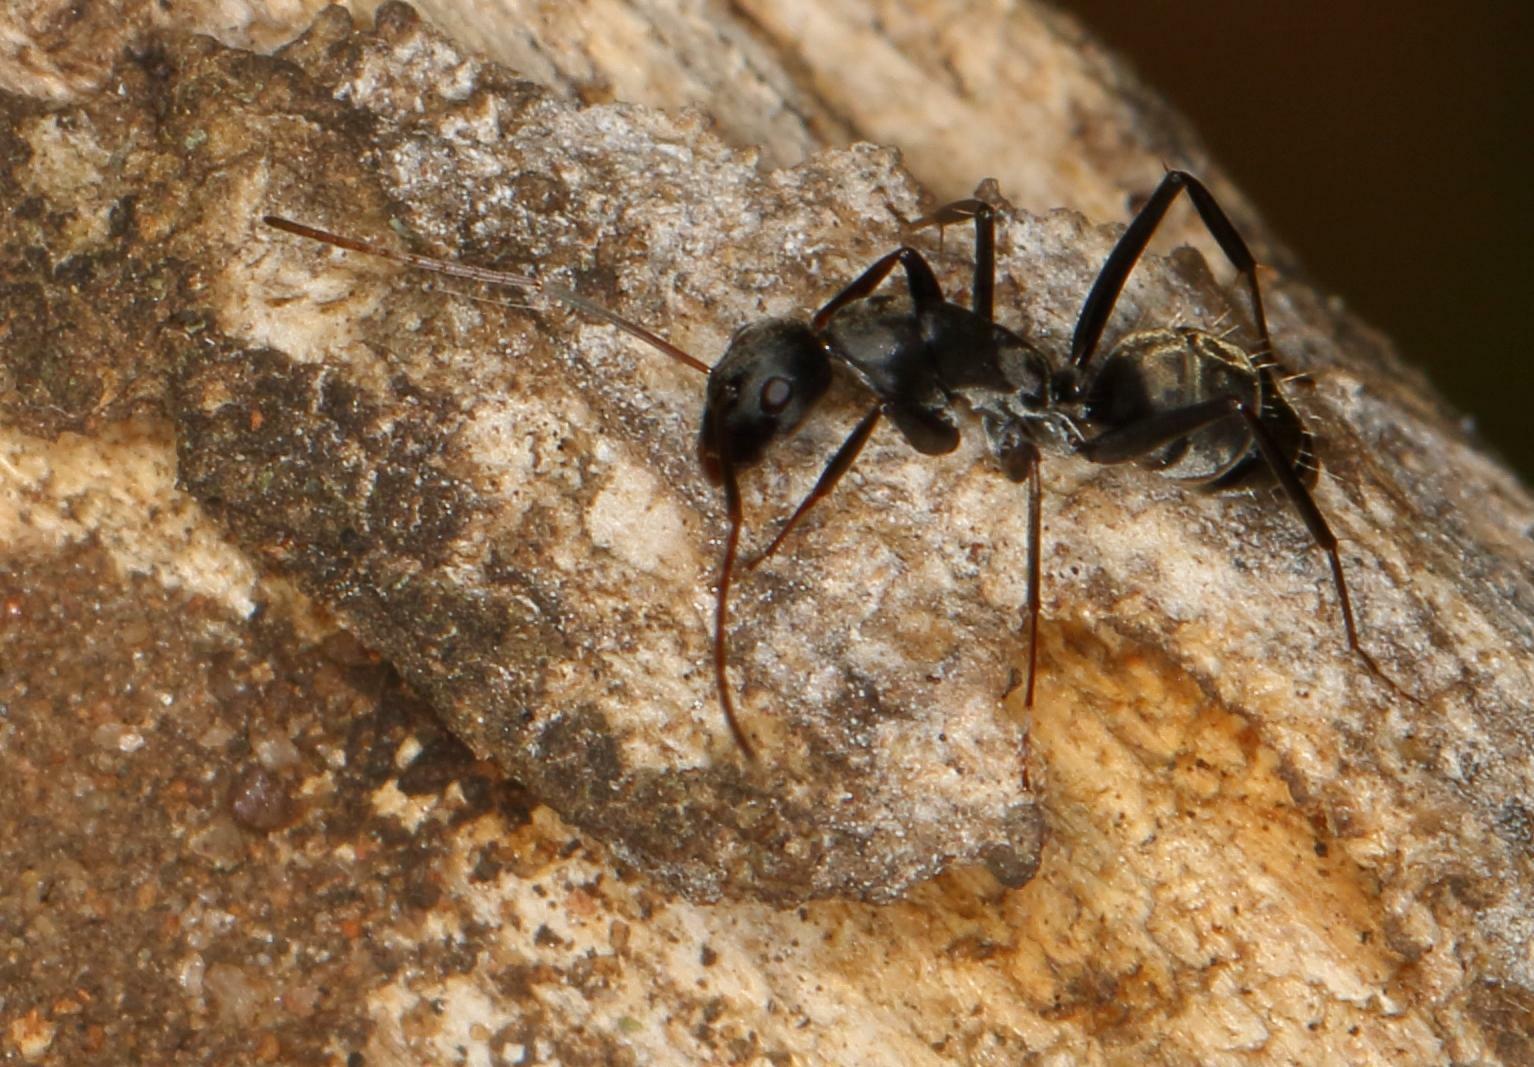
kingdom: Animalia
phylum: Arthropoda
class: Insecta
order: Hymenoptera
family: Formicidae
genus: Camponotus
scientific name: Camponotus cinctellus
